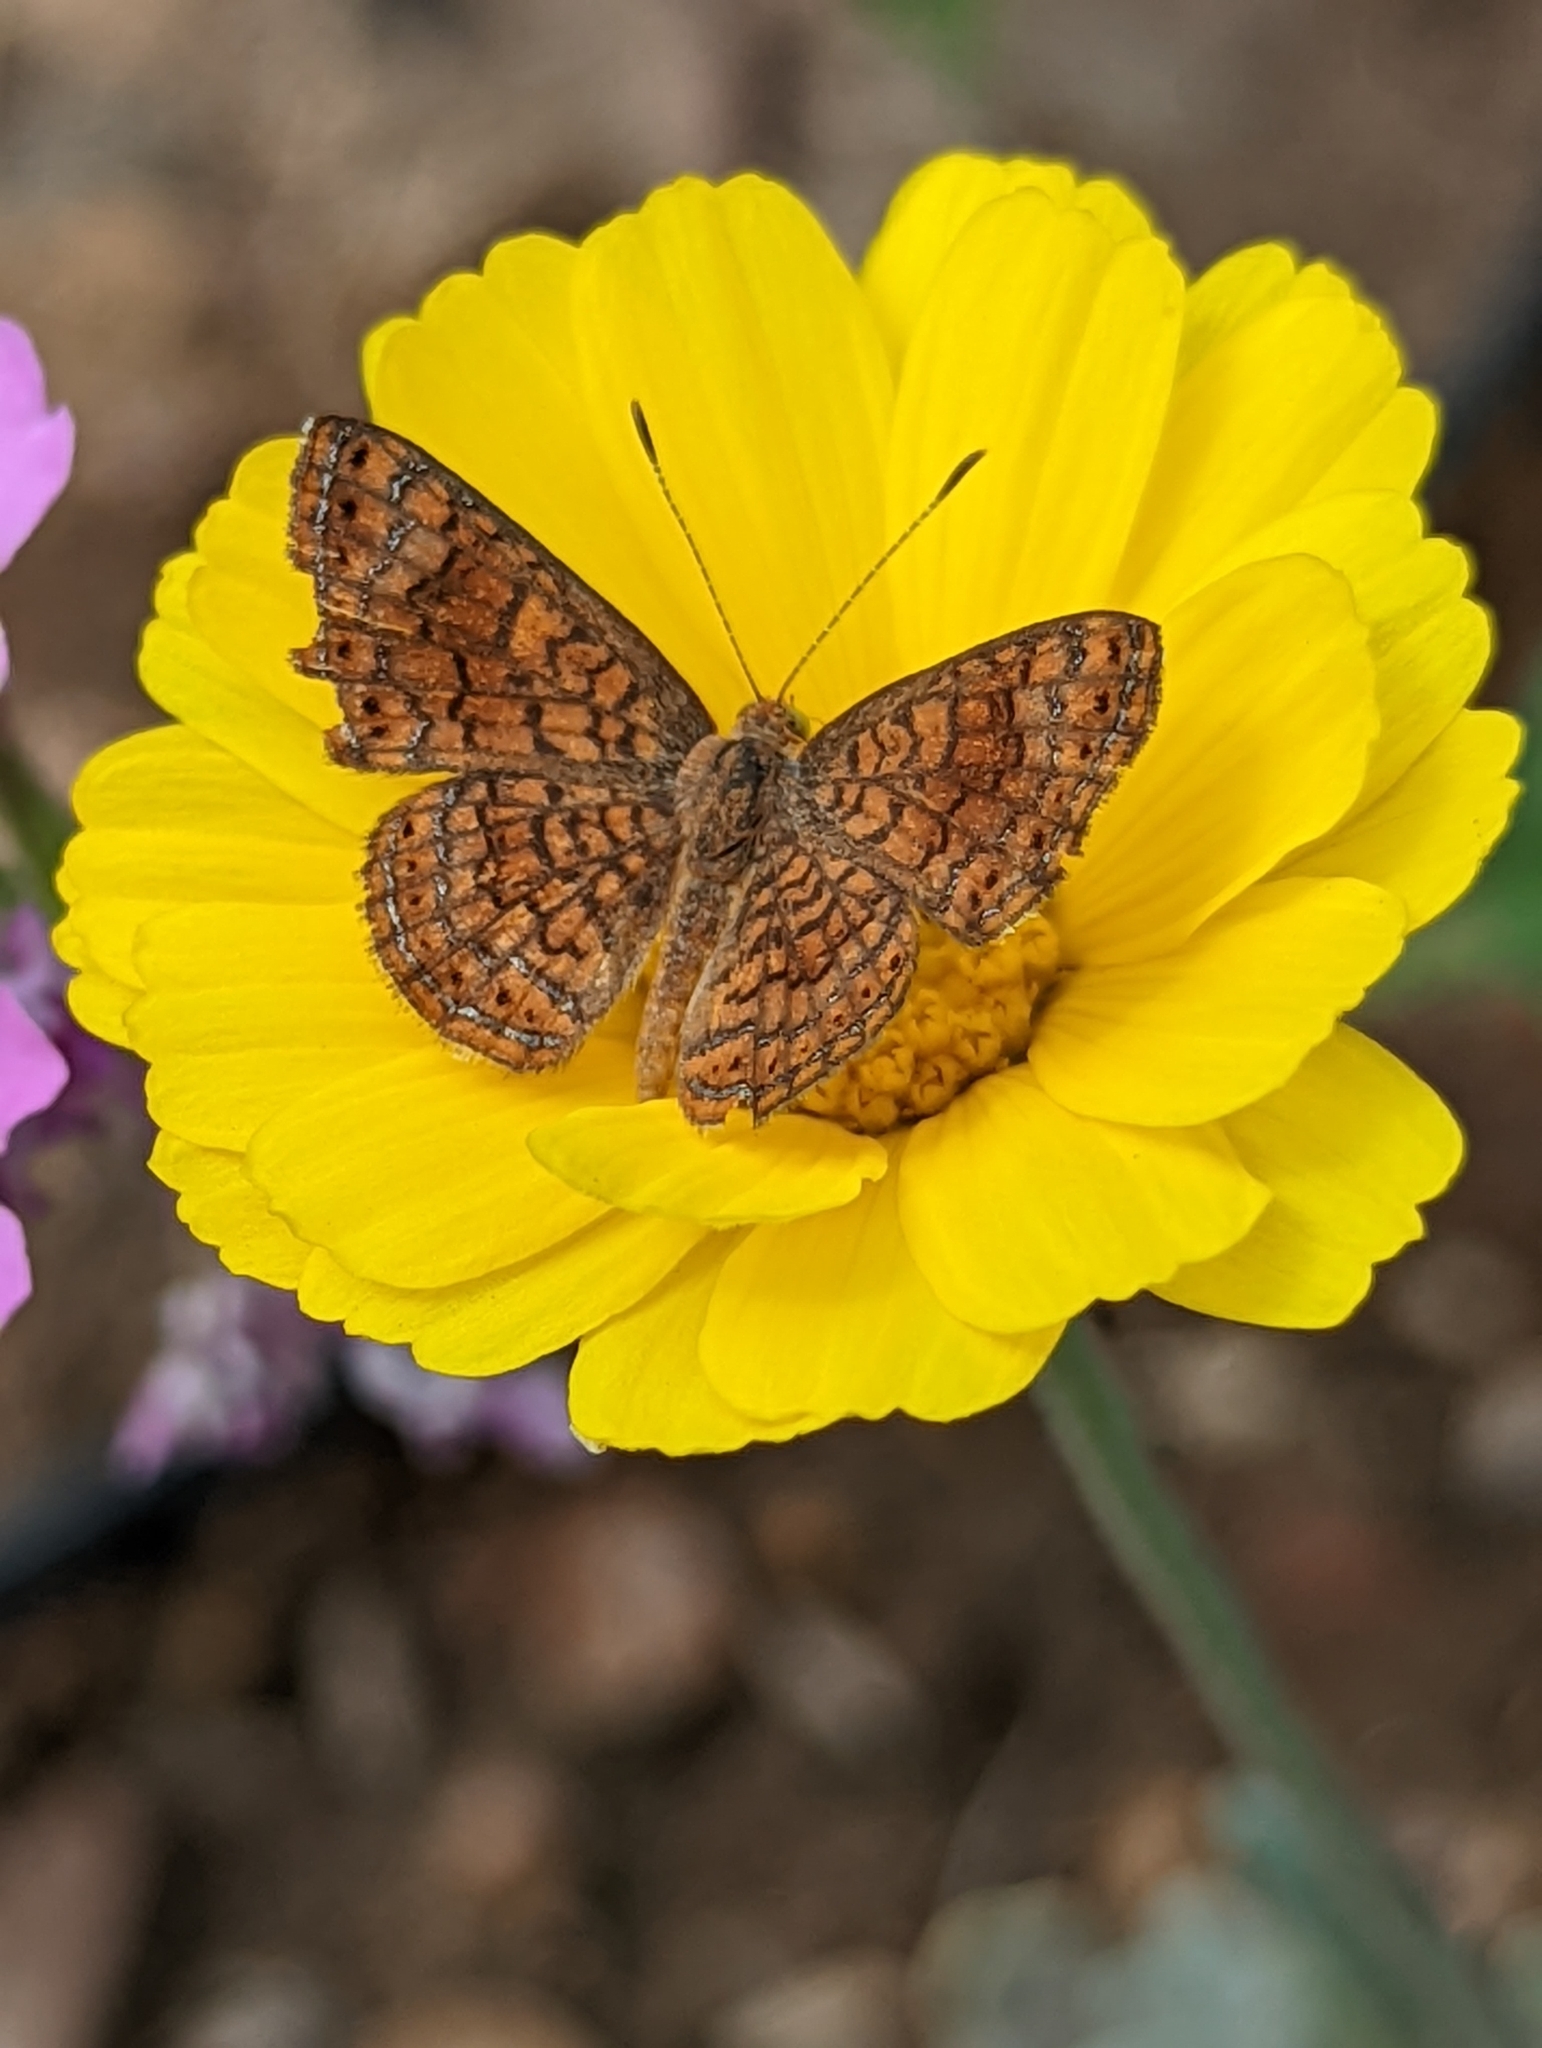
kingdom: Animalia
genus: Calephelis
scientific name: Calephelis nemesis
